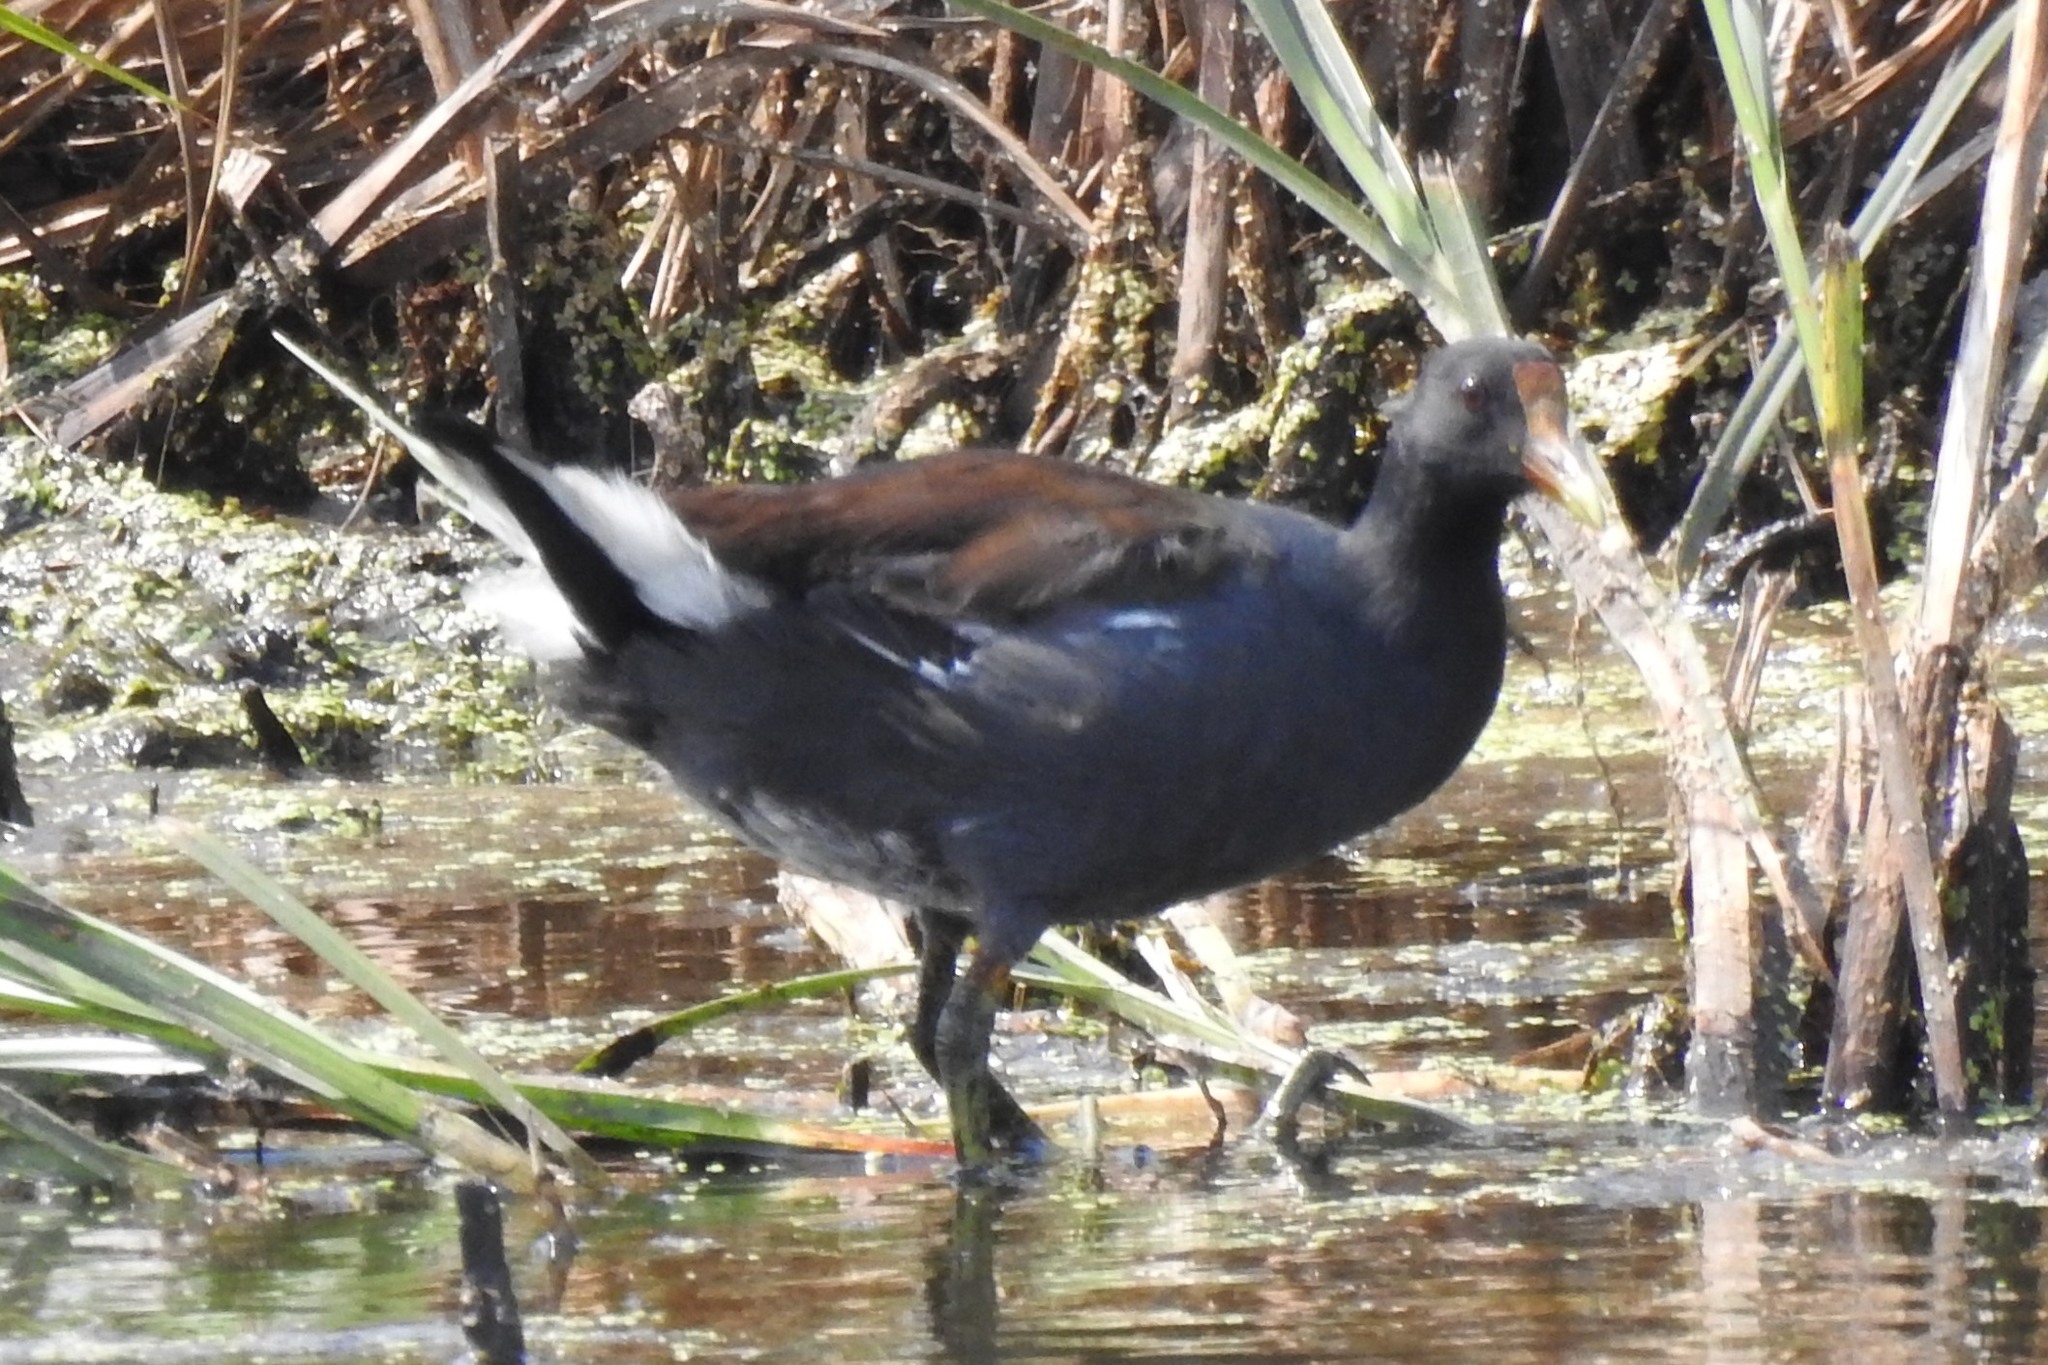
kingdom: Animalia
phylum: Chordata
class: Aves
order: Gruiformes
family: Rallidae
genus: Gallinula
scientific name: Gallinula chloropus
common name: Common moorhen
